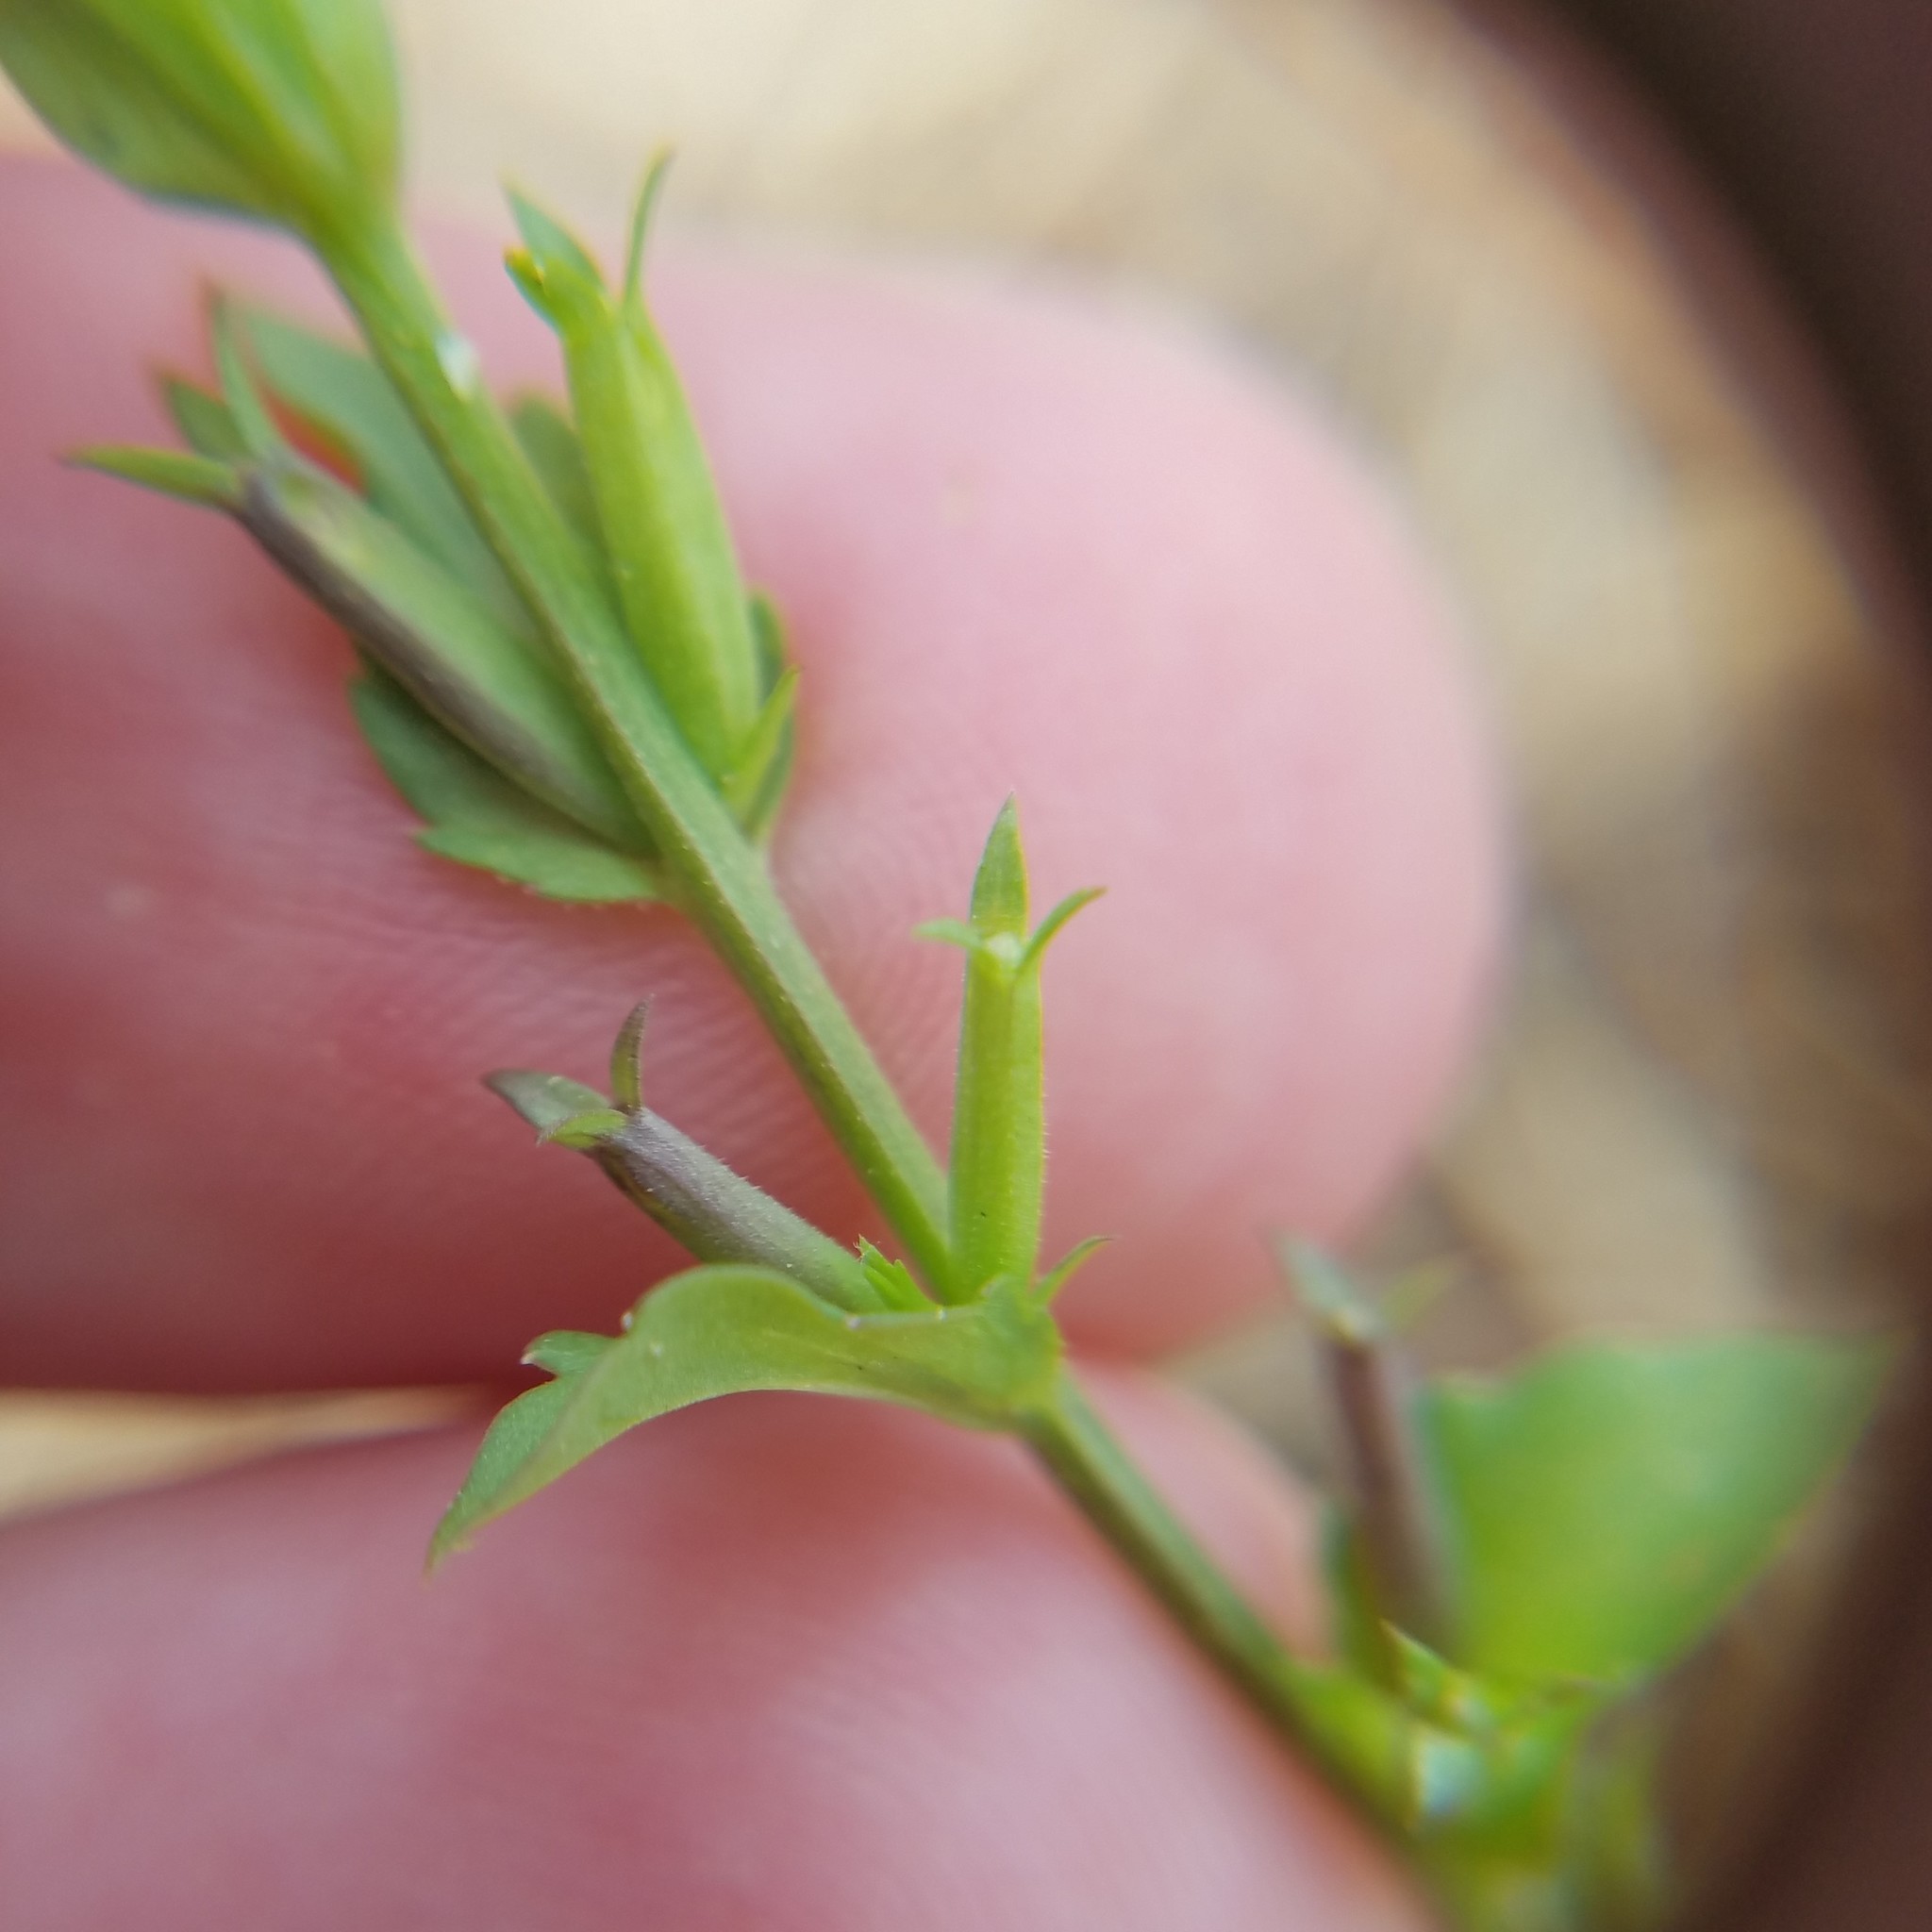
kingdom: Plantae
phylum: Tracheophyta
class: Magnoliopsida
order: Asterales
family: Campanulaceae
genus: Triodanis
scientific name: Triodanis biflora
